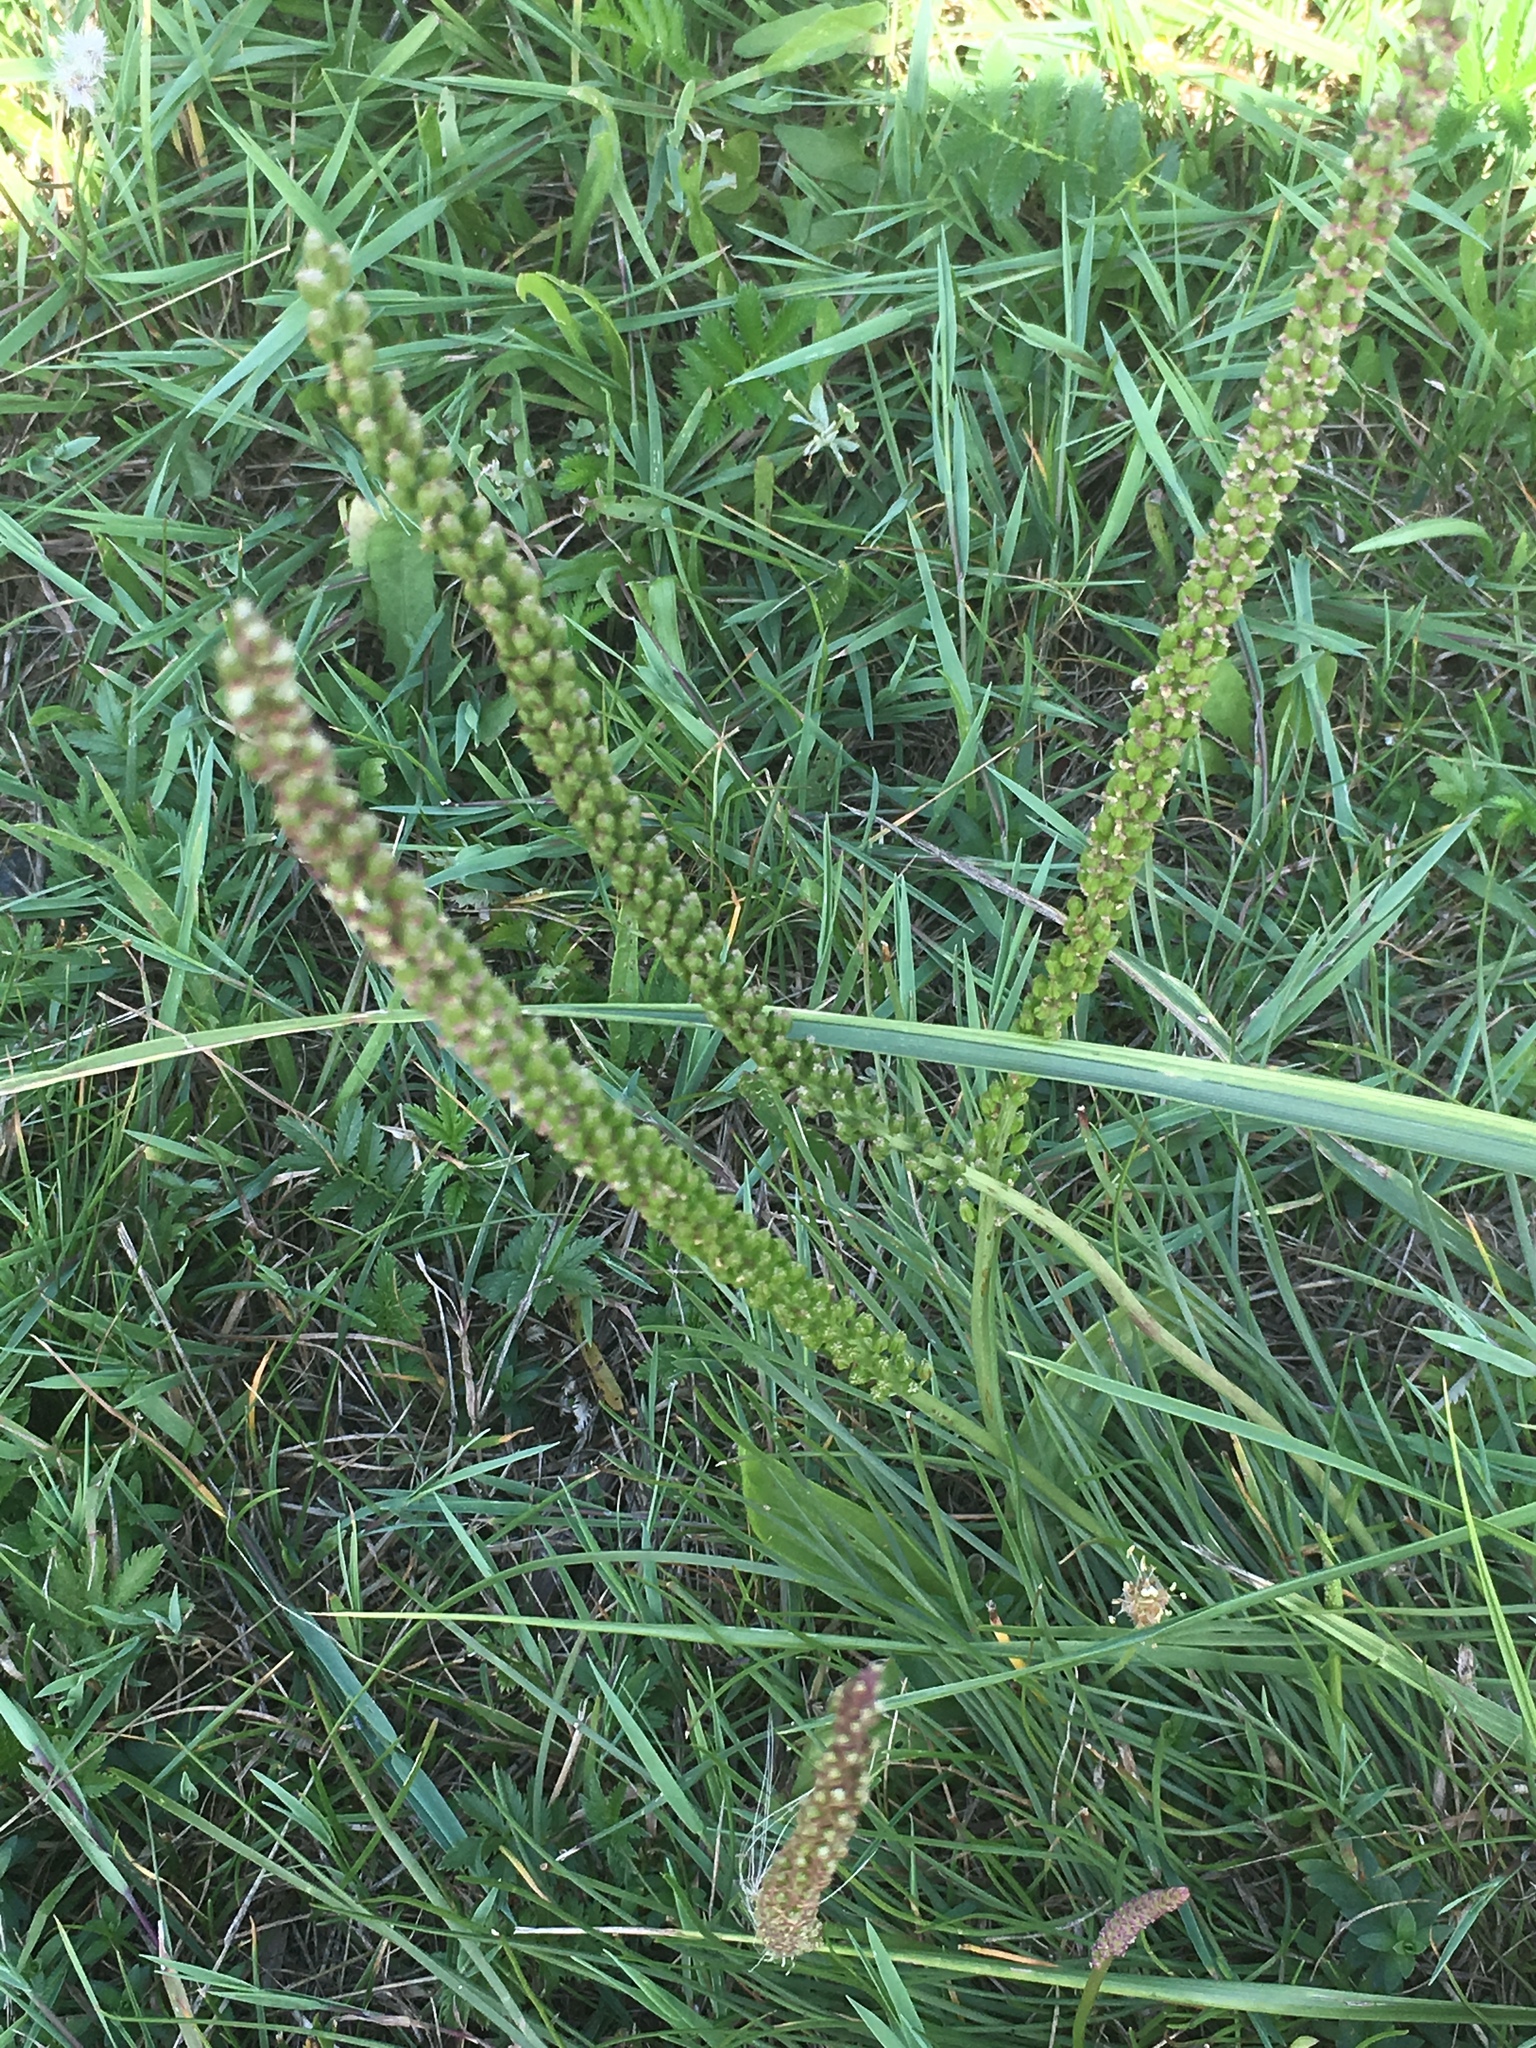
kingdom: Plantae
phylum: Tracheophyta
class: Magnoliopsida
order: Lamiales
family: Plantaginaceae
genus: Plantago
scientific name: Plantago major
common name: Common plantain
